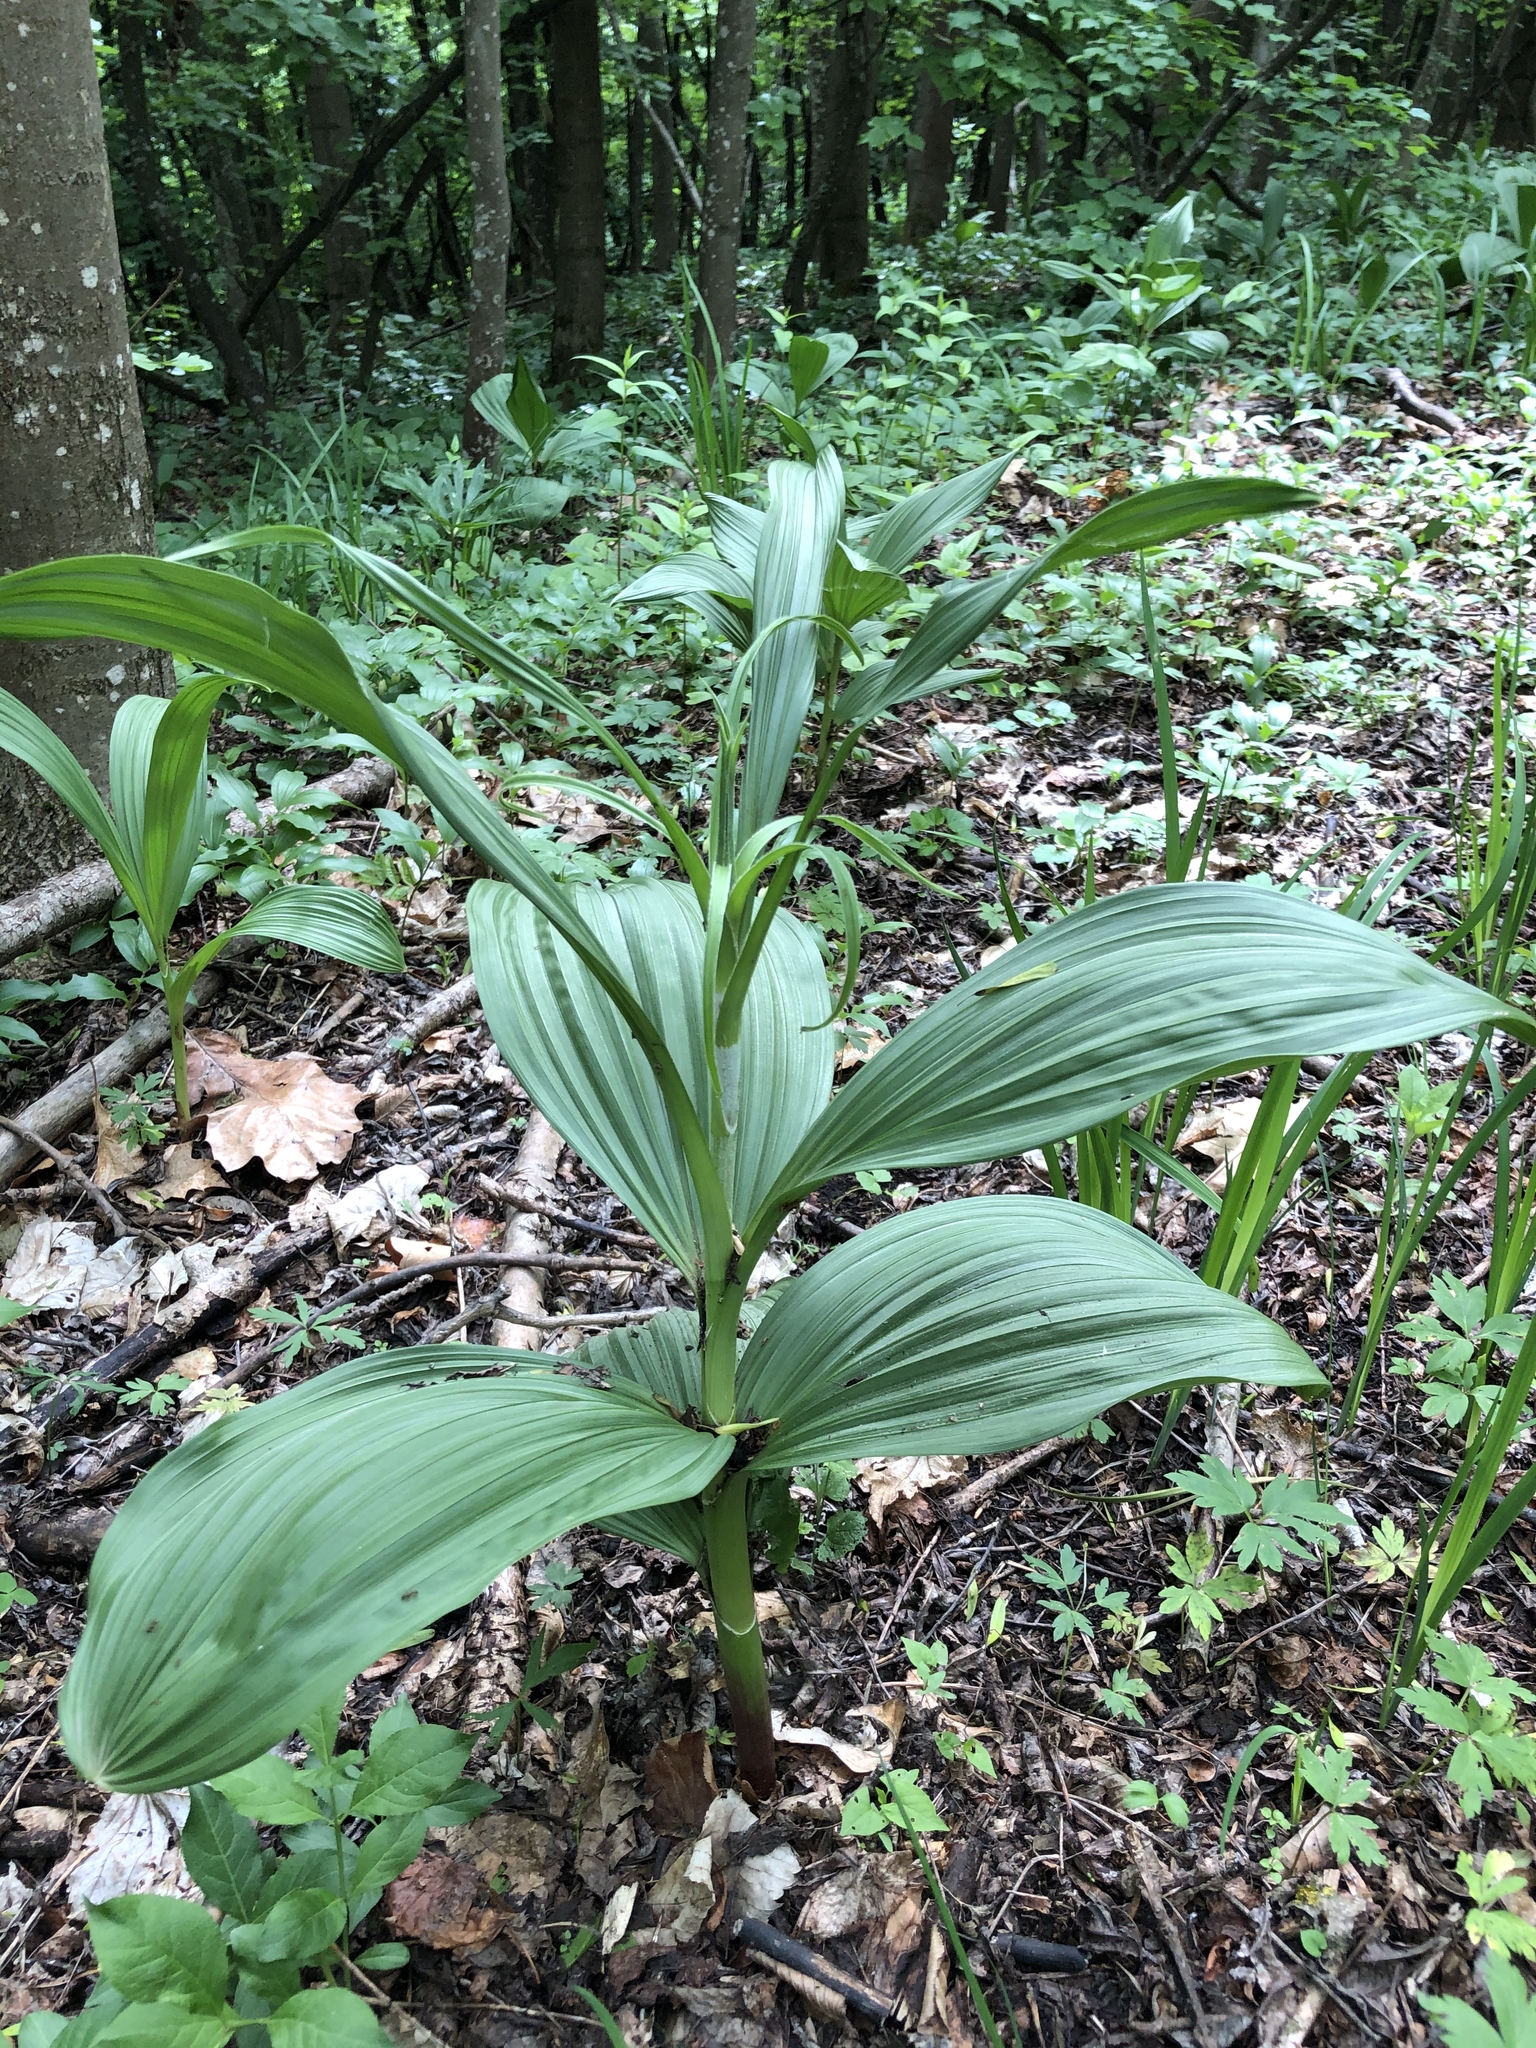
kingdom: Plantae
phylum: Tracheophyta
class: Liliopsida
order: Liliales
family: Melanthiaceae
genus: Veratrum
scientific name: Veratrum nigrum
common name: Black veratrum
